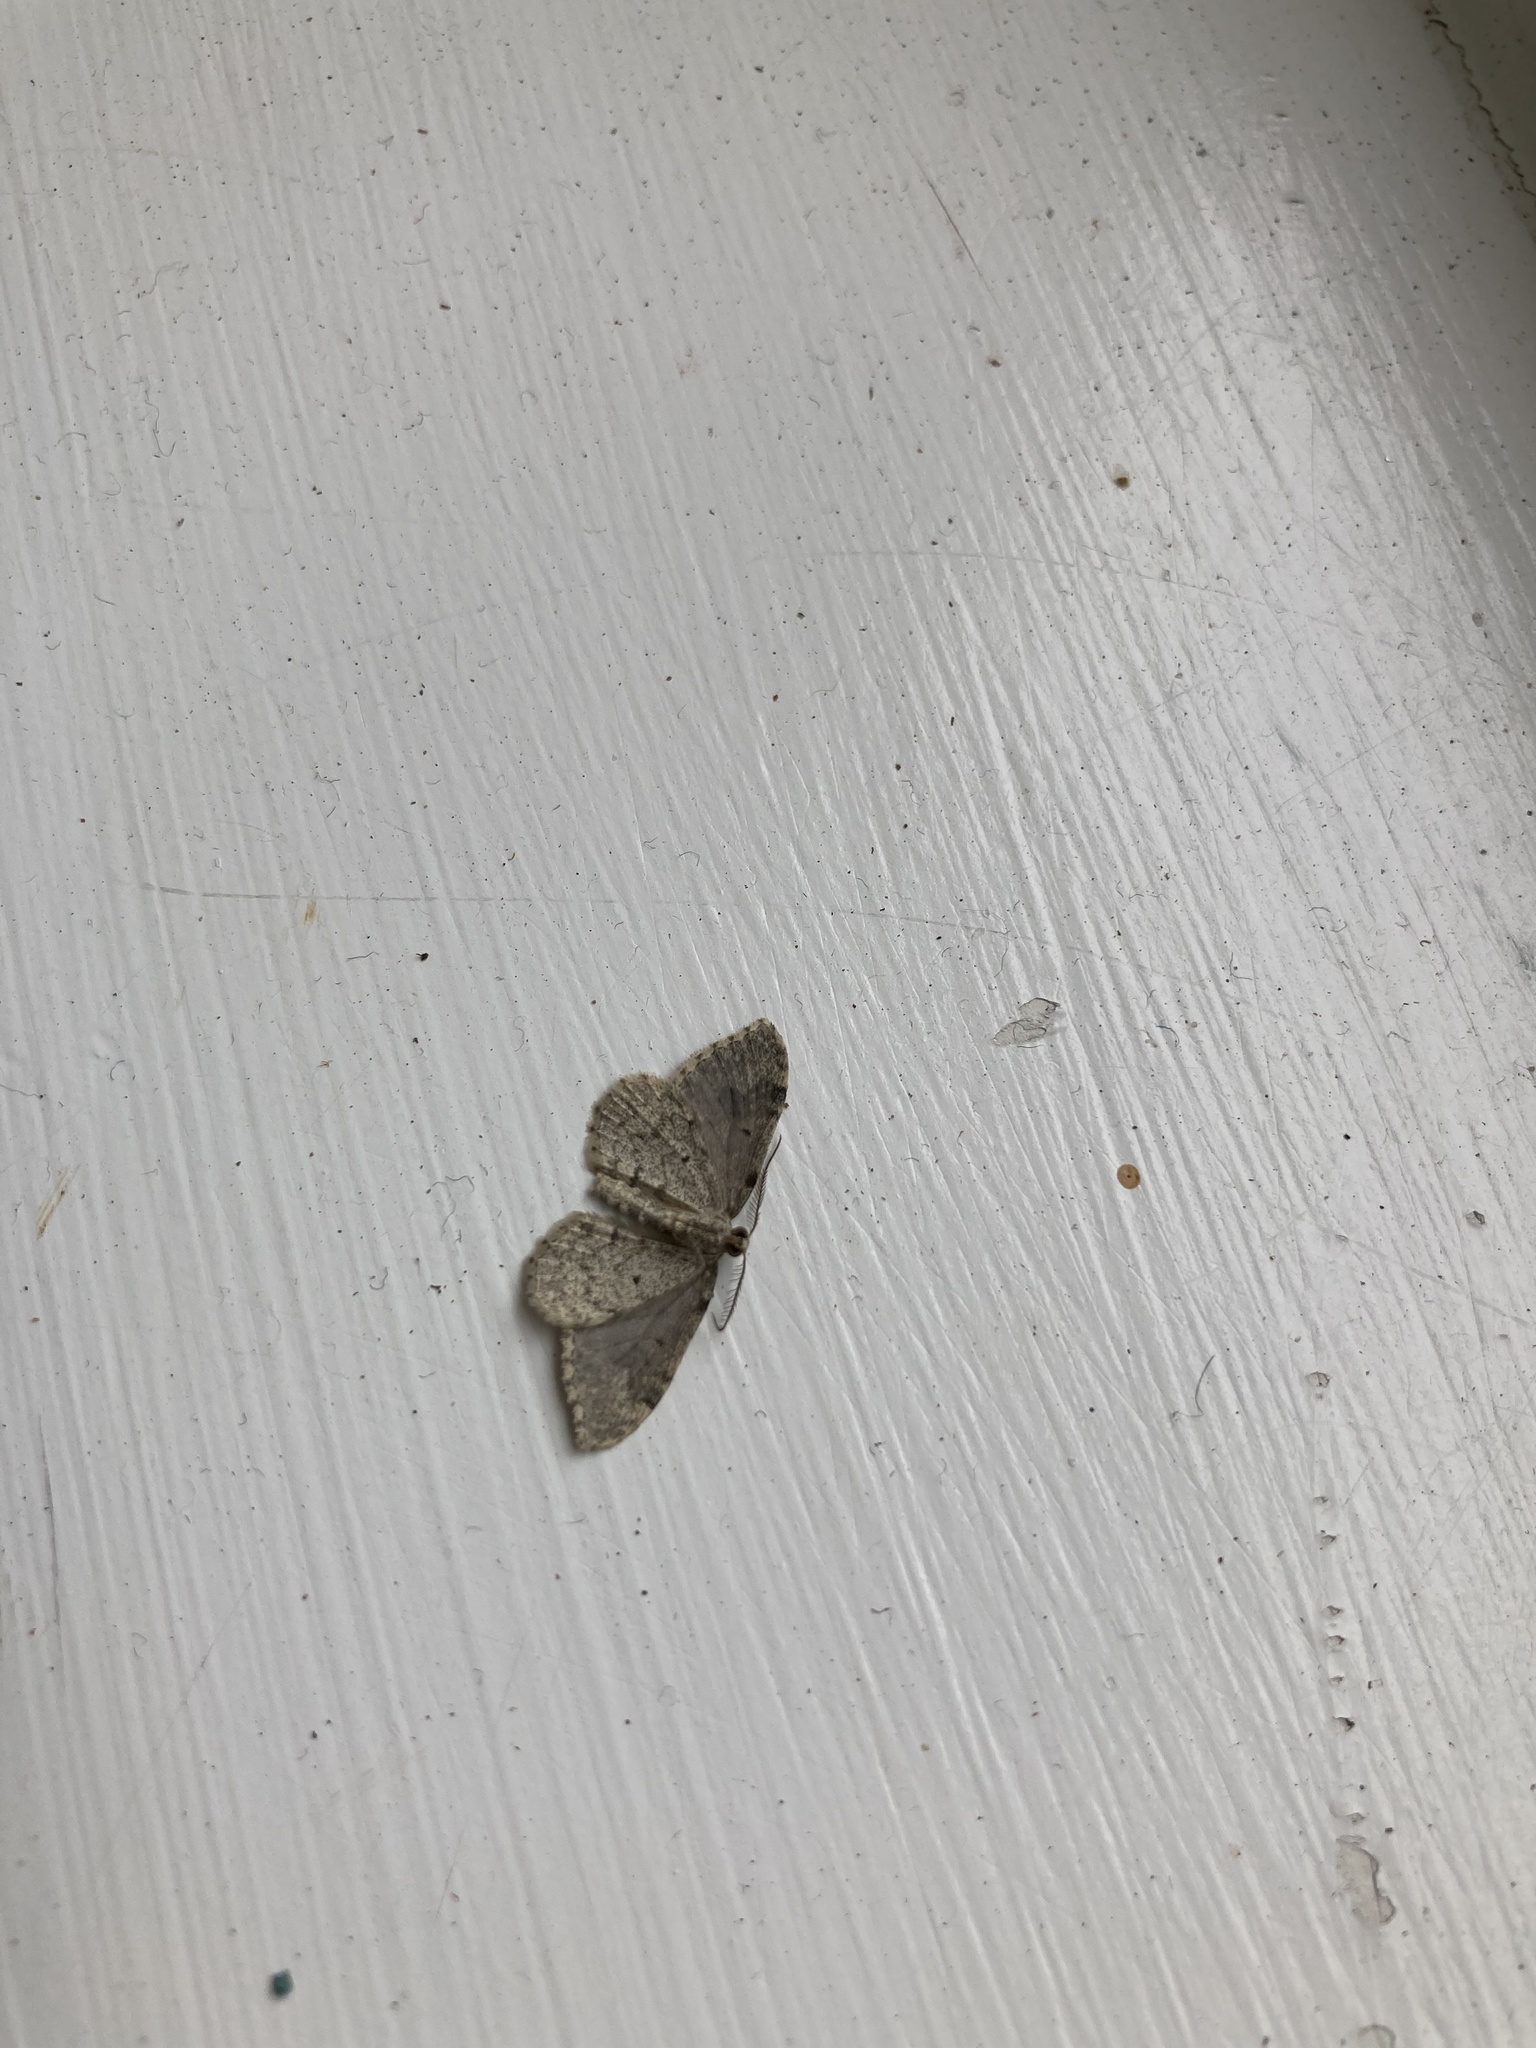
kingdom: Animalia
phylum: Arthropoda
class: Insecta
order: Lepidoptera
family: Geometridae
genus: Helastia
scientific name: Helastia cinerearia
